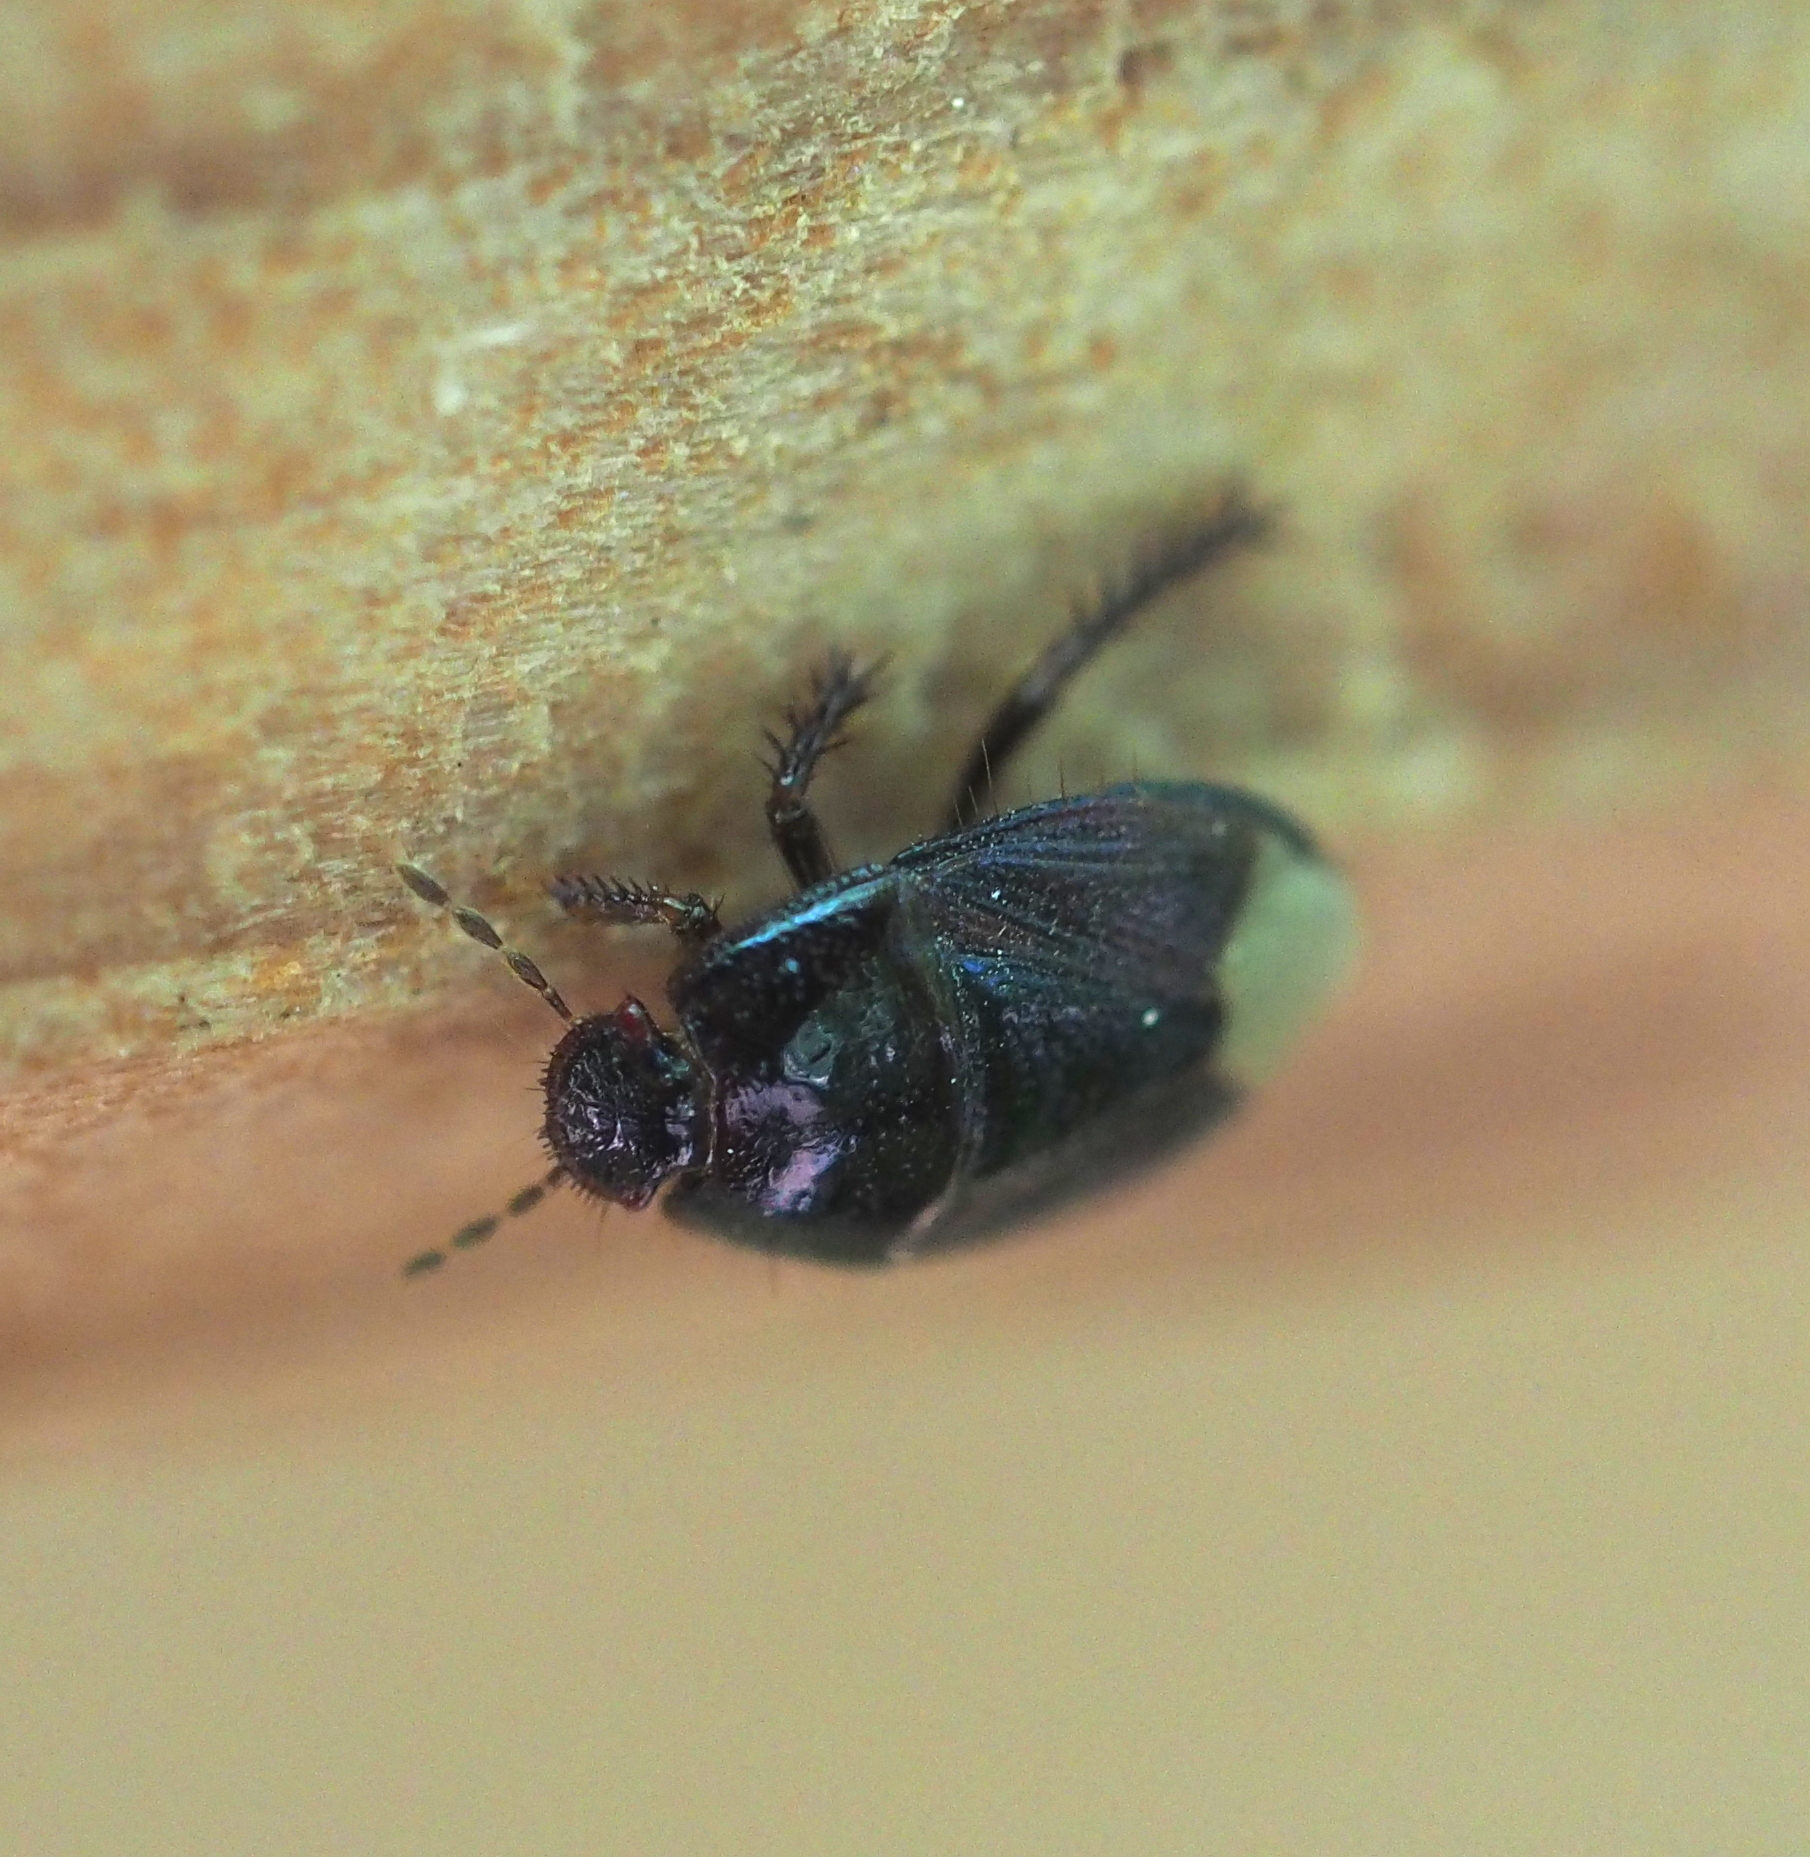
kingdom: Animalia
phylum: Arthropoda
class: Insecta
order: Hemiptera
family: Cydnidae
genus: Microporus
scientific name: Microporus nigrita
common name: Burrower bug
